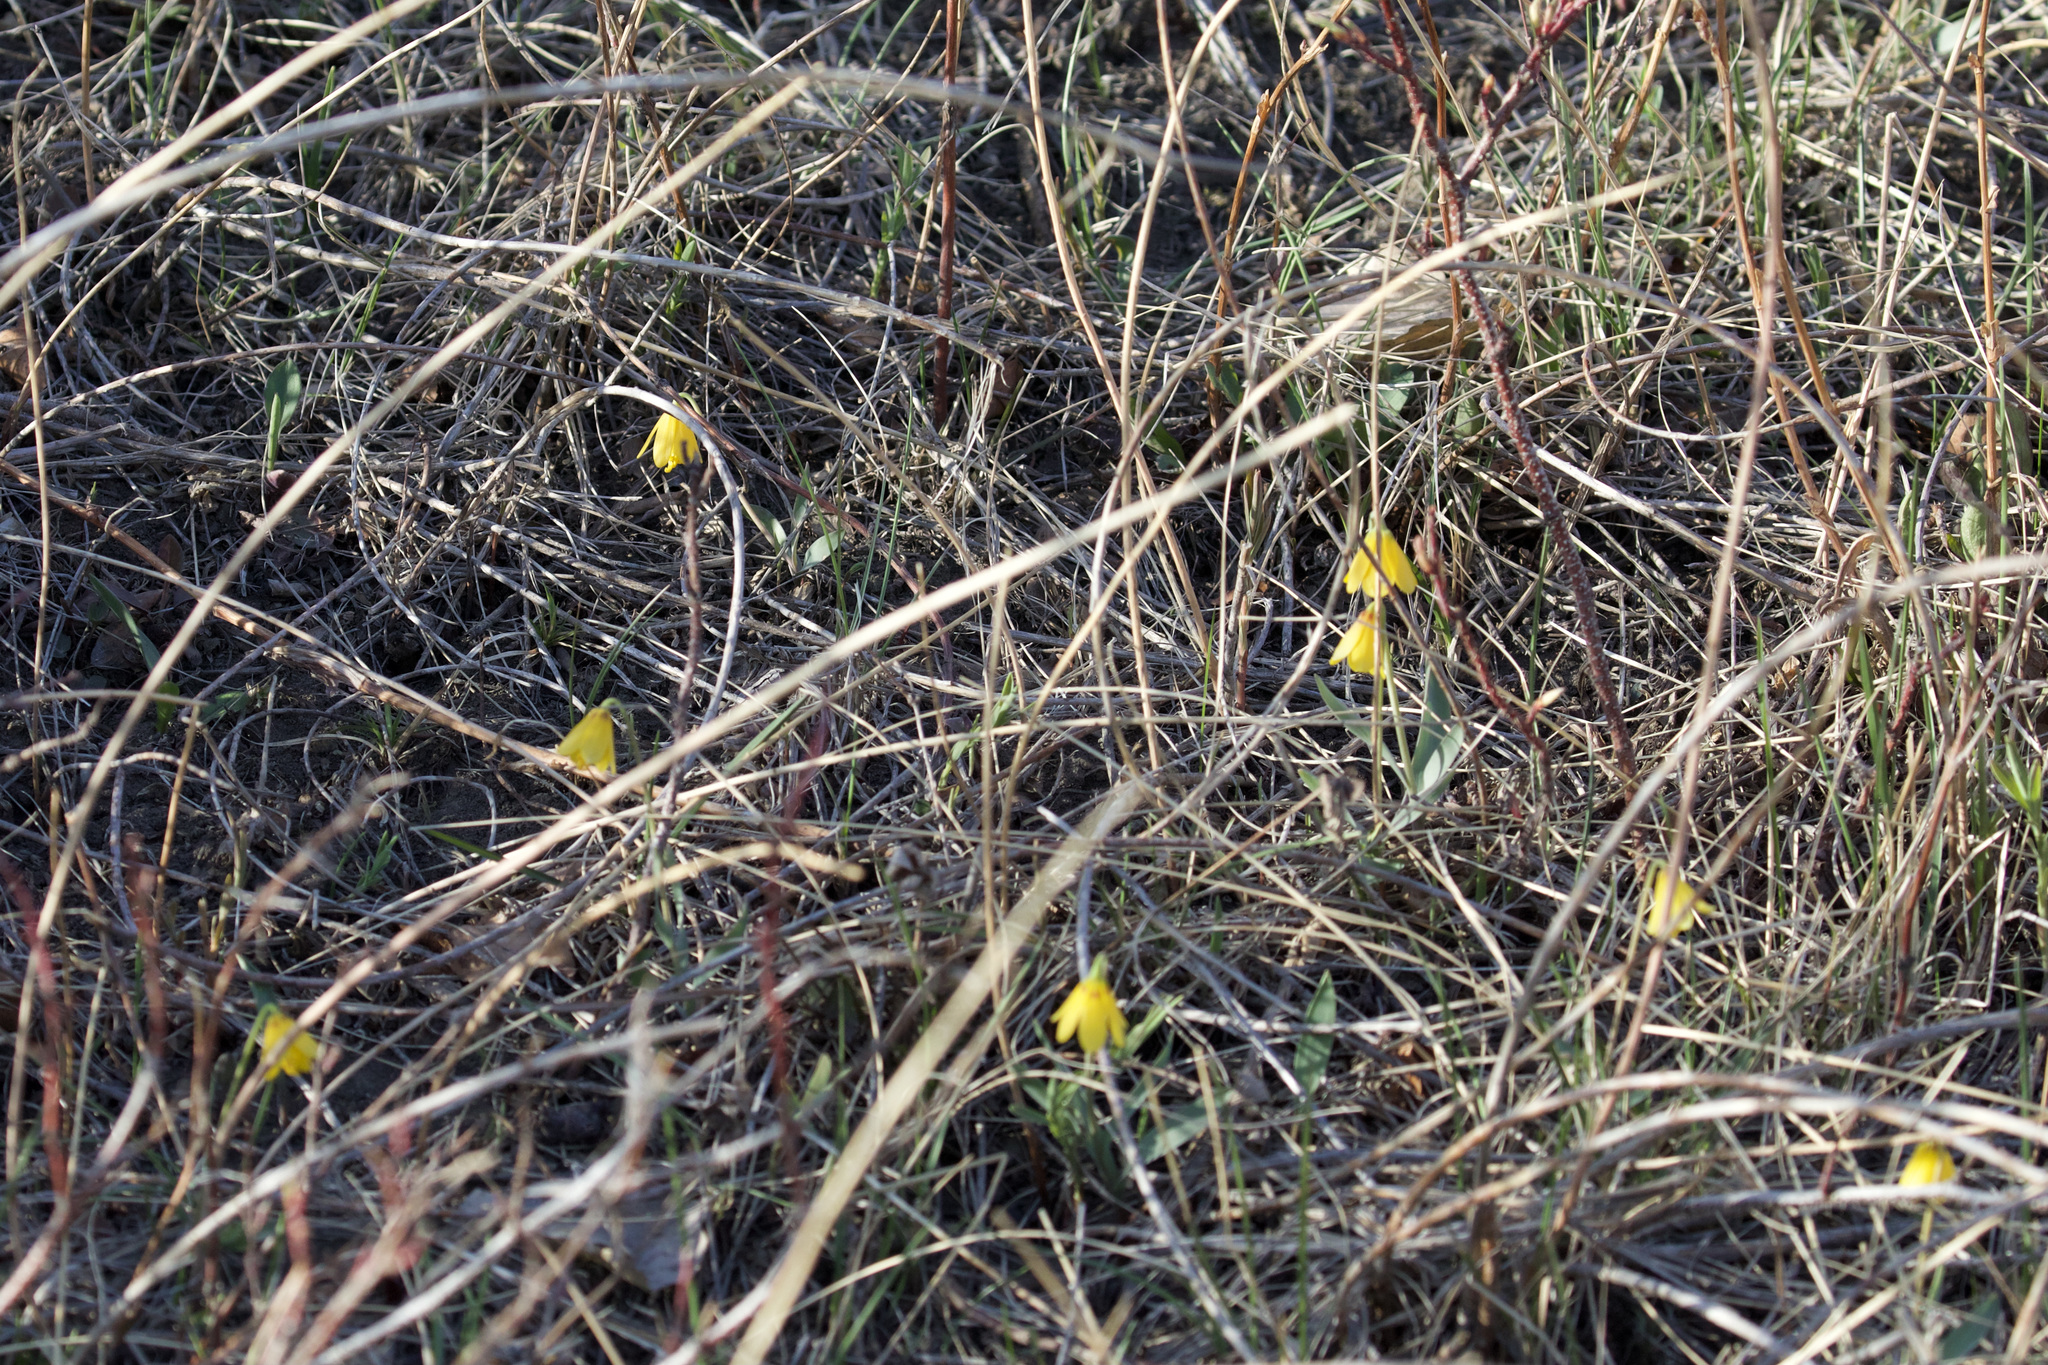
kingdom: Plantae
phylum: Tracheophyta
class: Liliopsida
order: Liliales
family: Liliaceae
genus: Fritillaria
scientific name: Fritillaria pudica
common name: Yellow fritillary
